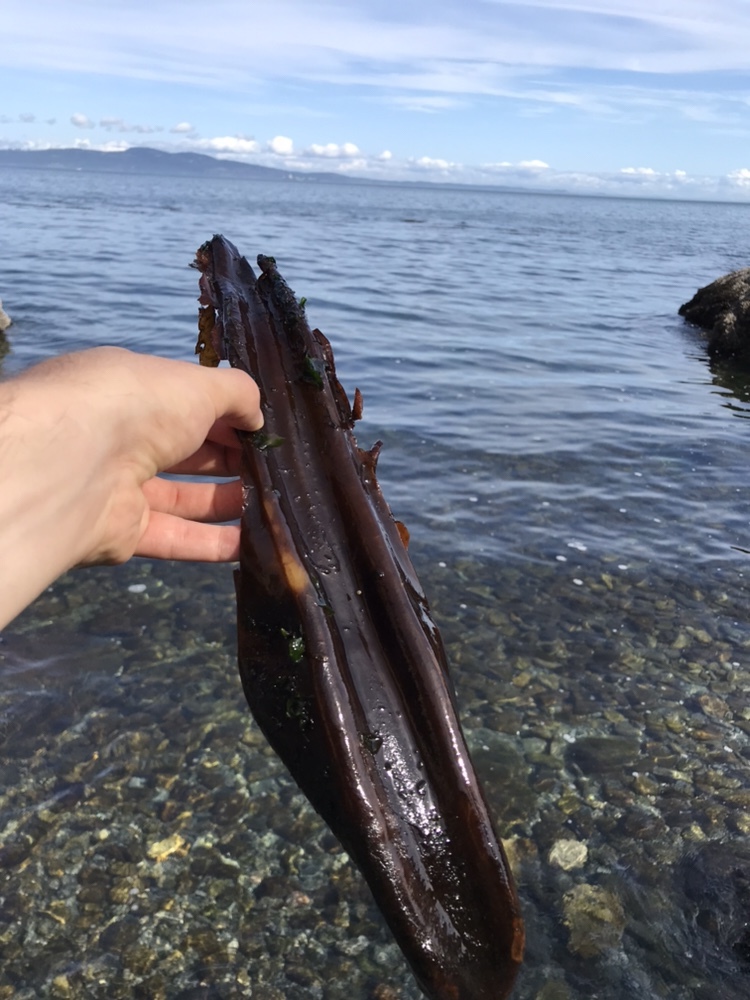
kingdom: Chromista
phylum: Ochrophyta
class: Phaeophyceae
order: Laminariales
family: Laminariaceae
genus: Cymathaere
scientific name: Cymathaere triplicata
